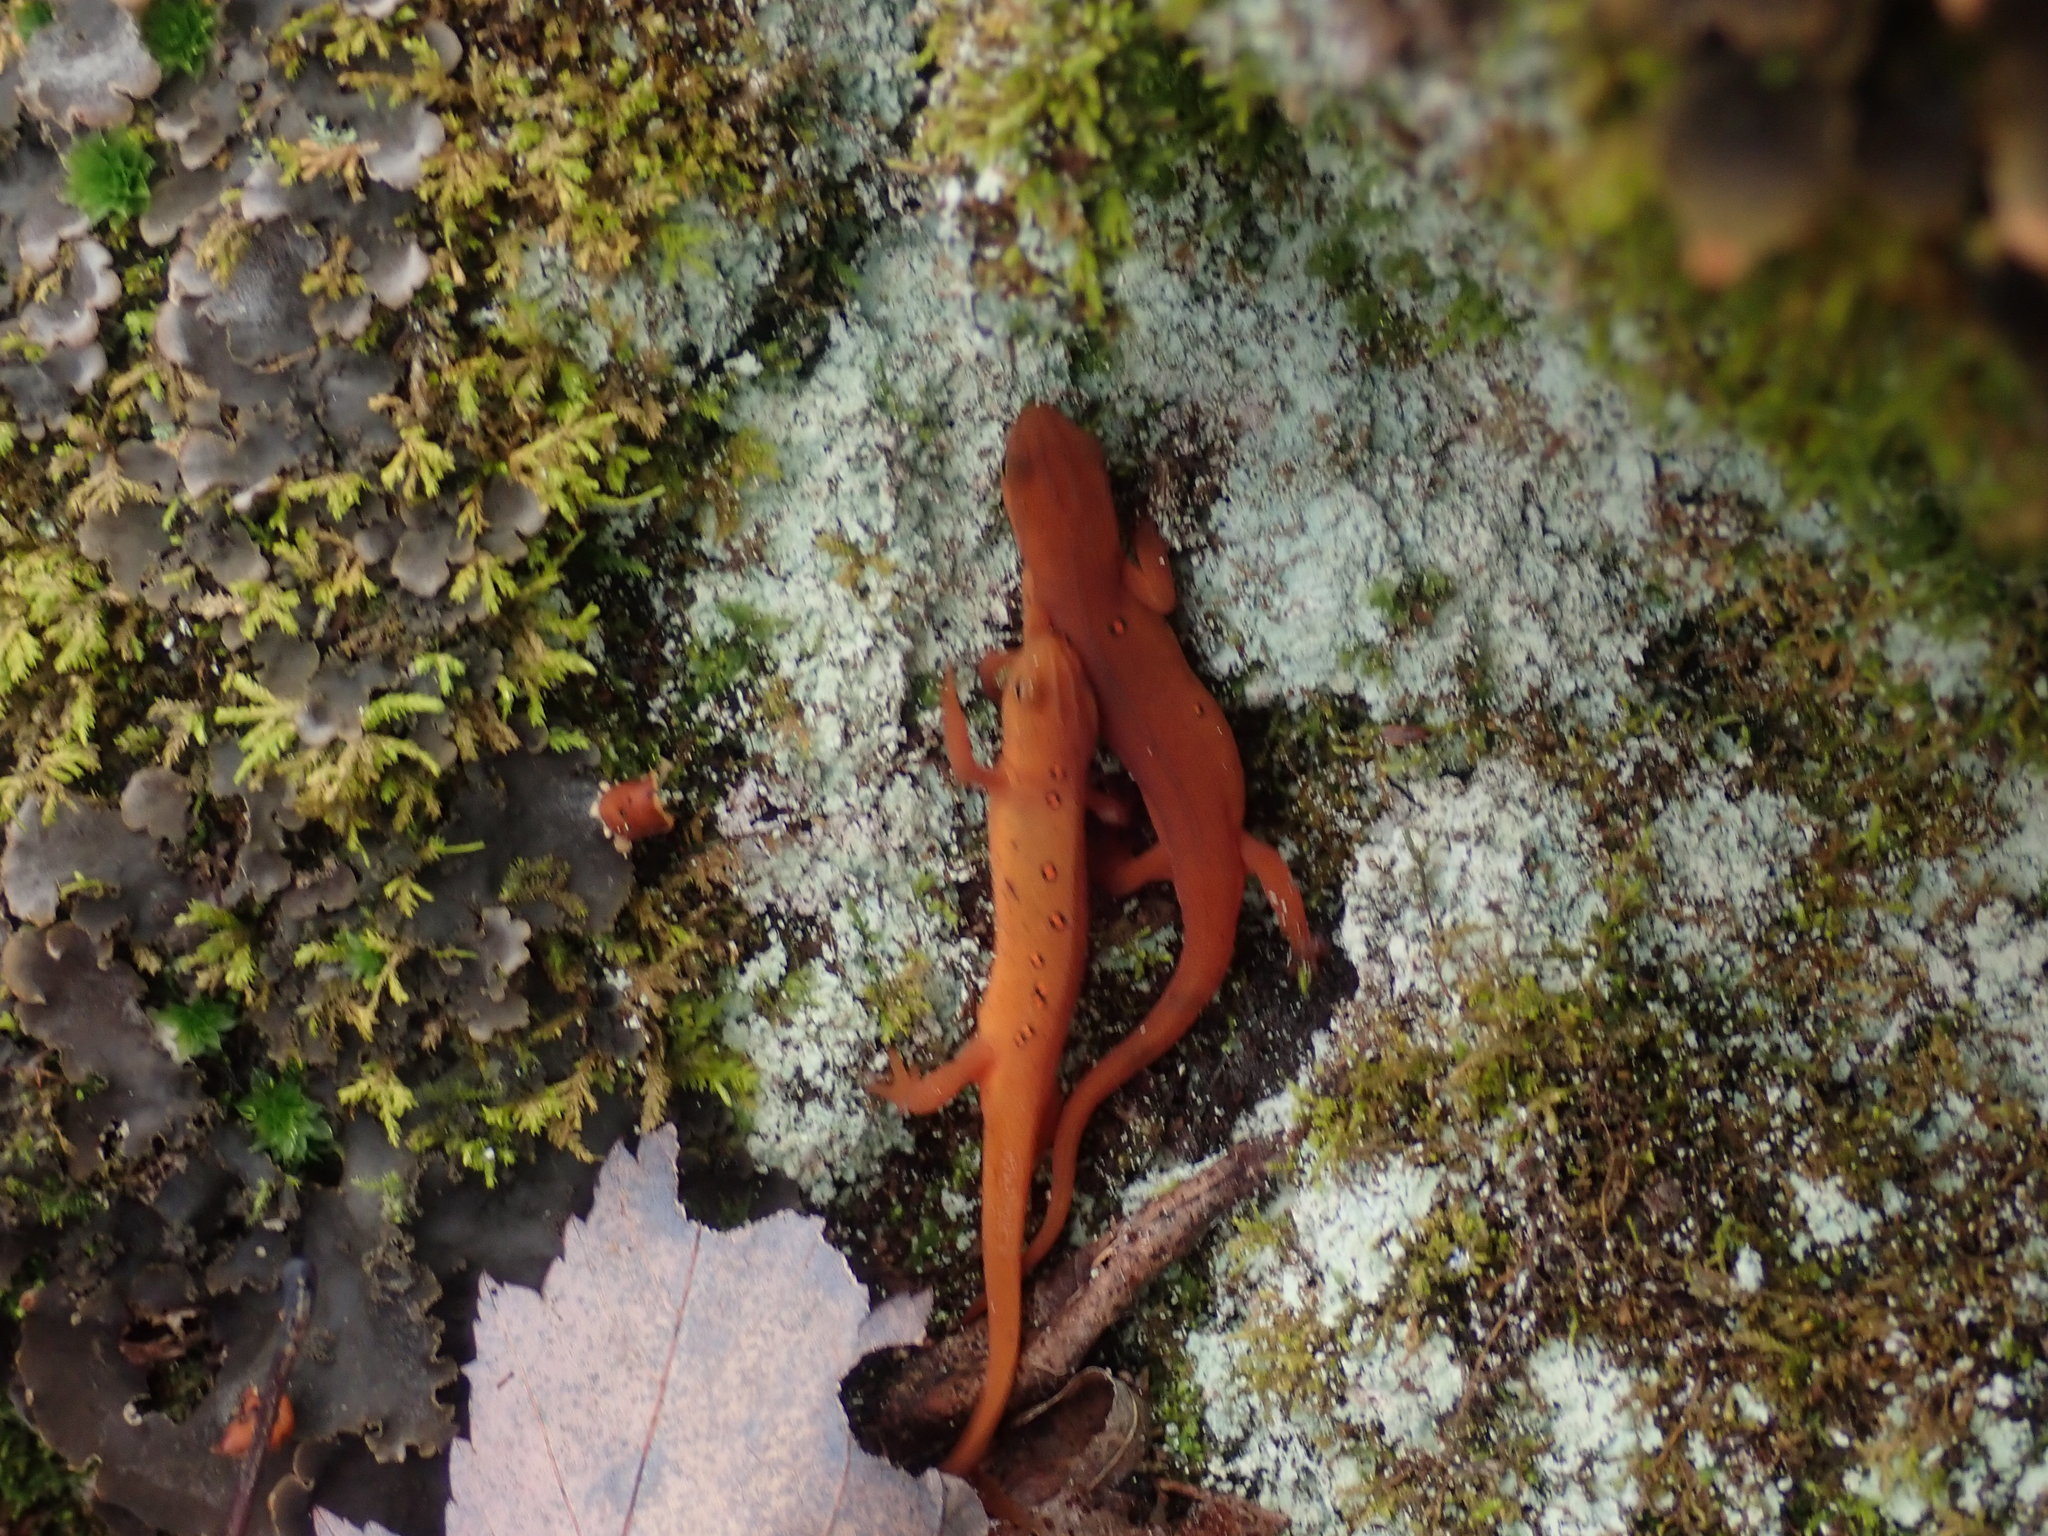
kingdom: Animalia
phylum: Chordata
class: Amphibia
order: Caudata
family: Salamandridae
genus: Notophthalmus
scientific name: Notophthalmus viridescens
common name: Eastern newt
